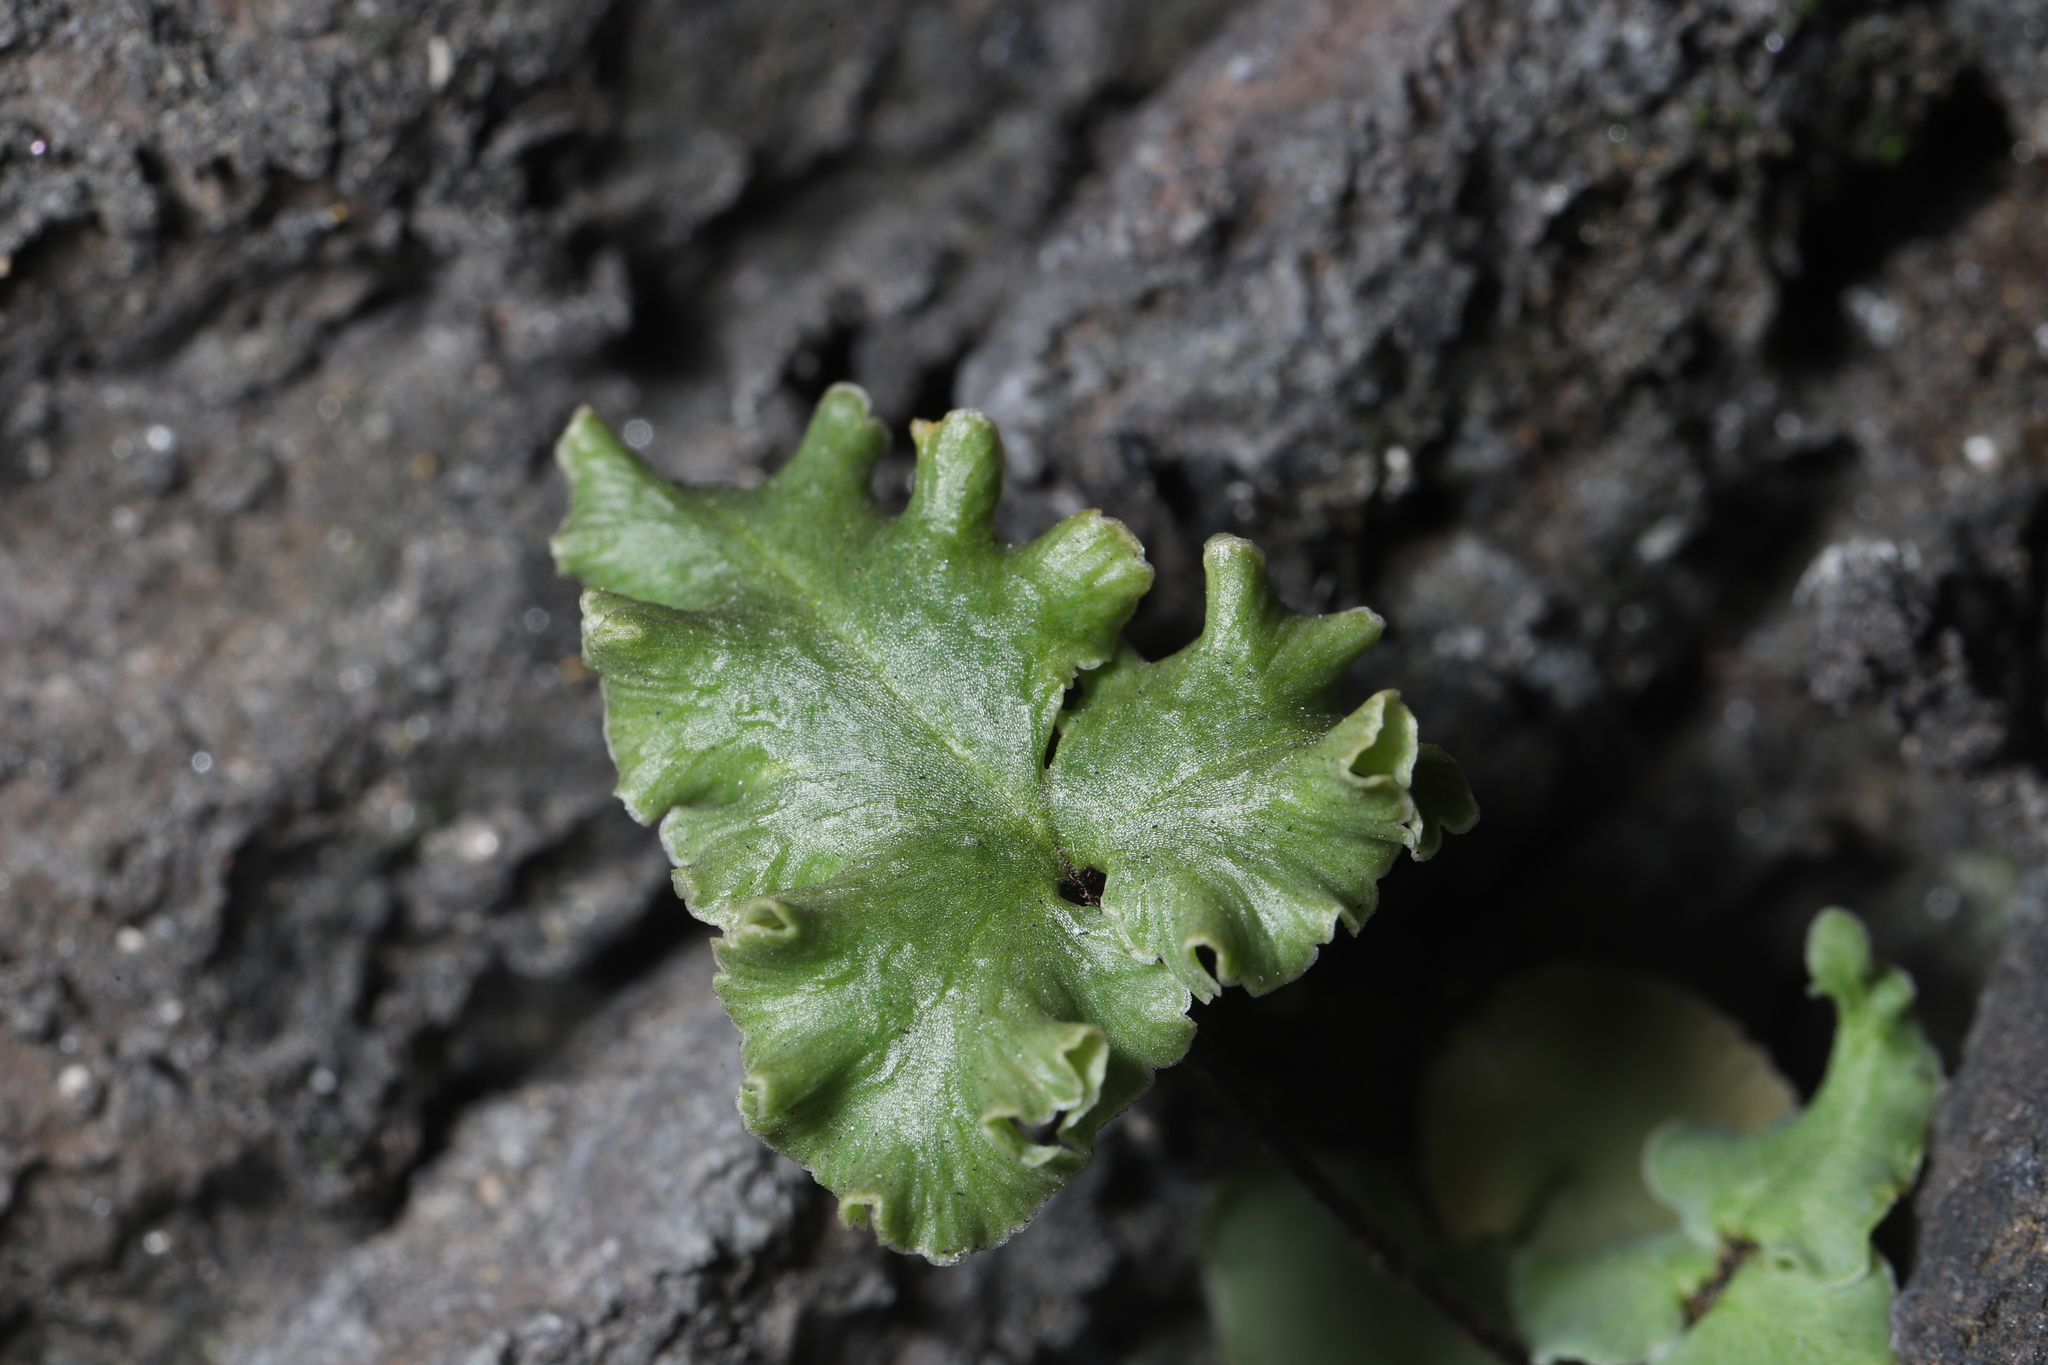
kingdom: Plantae
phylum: Tracheophyta
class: Polypodiopsida
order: Polypodiales
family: Pteridaceae
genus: Pellaea
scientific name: Pellaea atropurpurea
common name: Hairy cliffbrake
